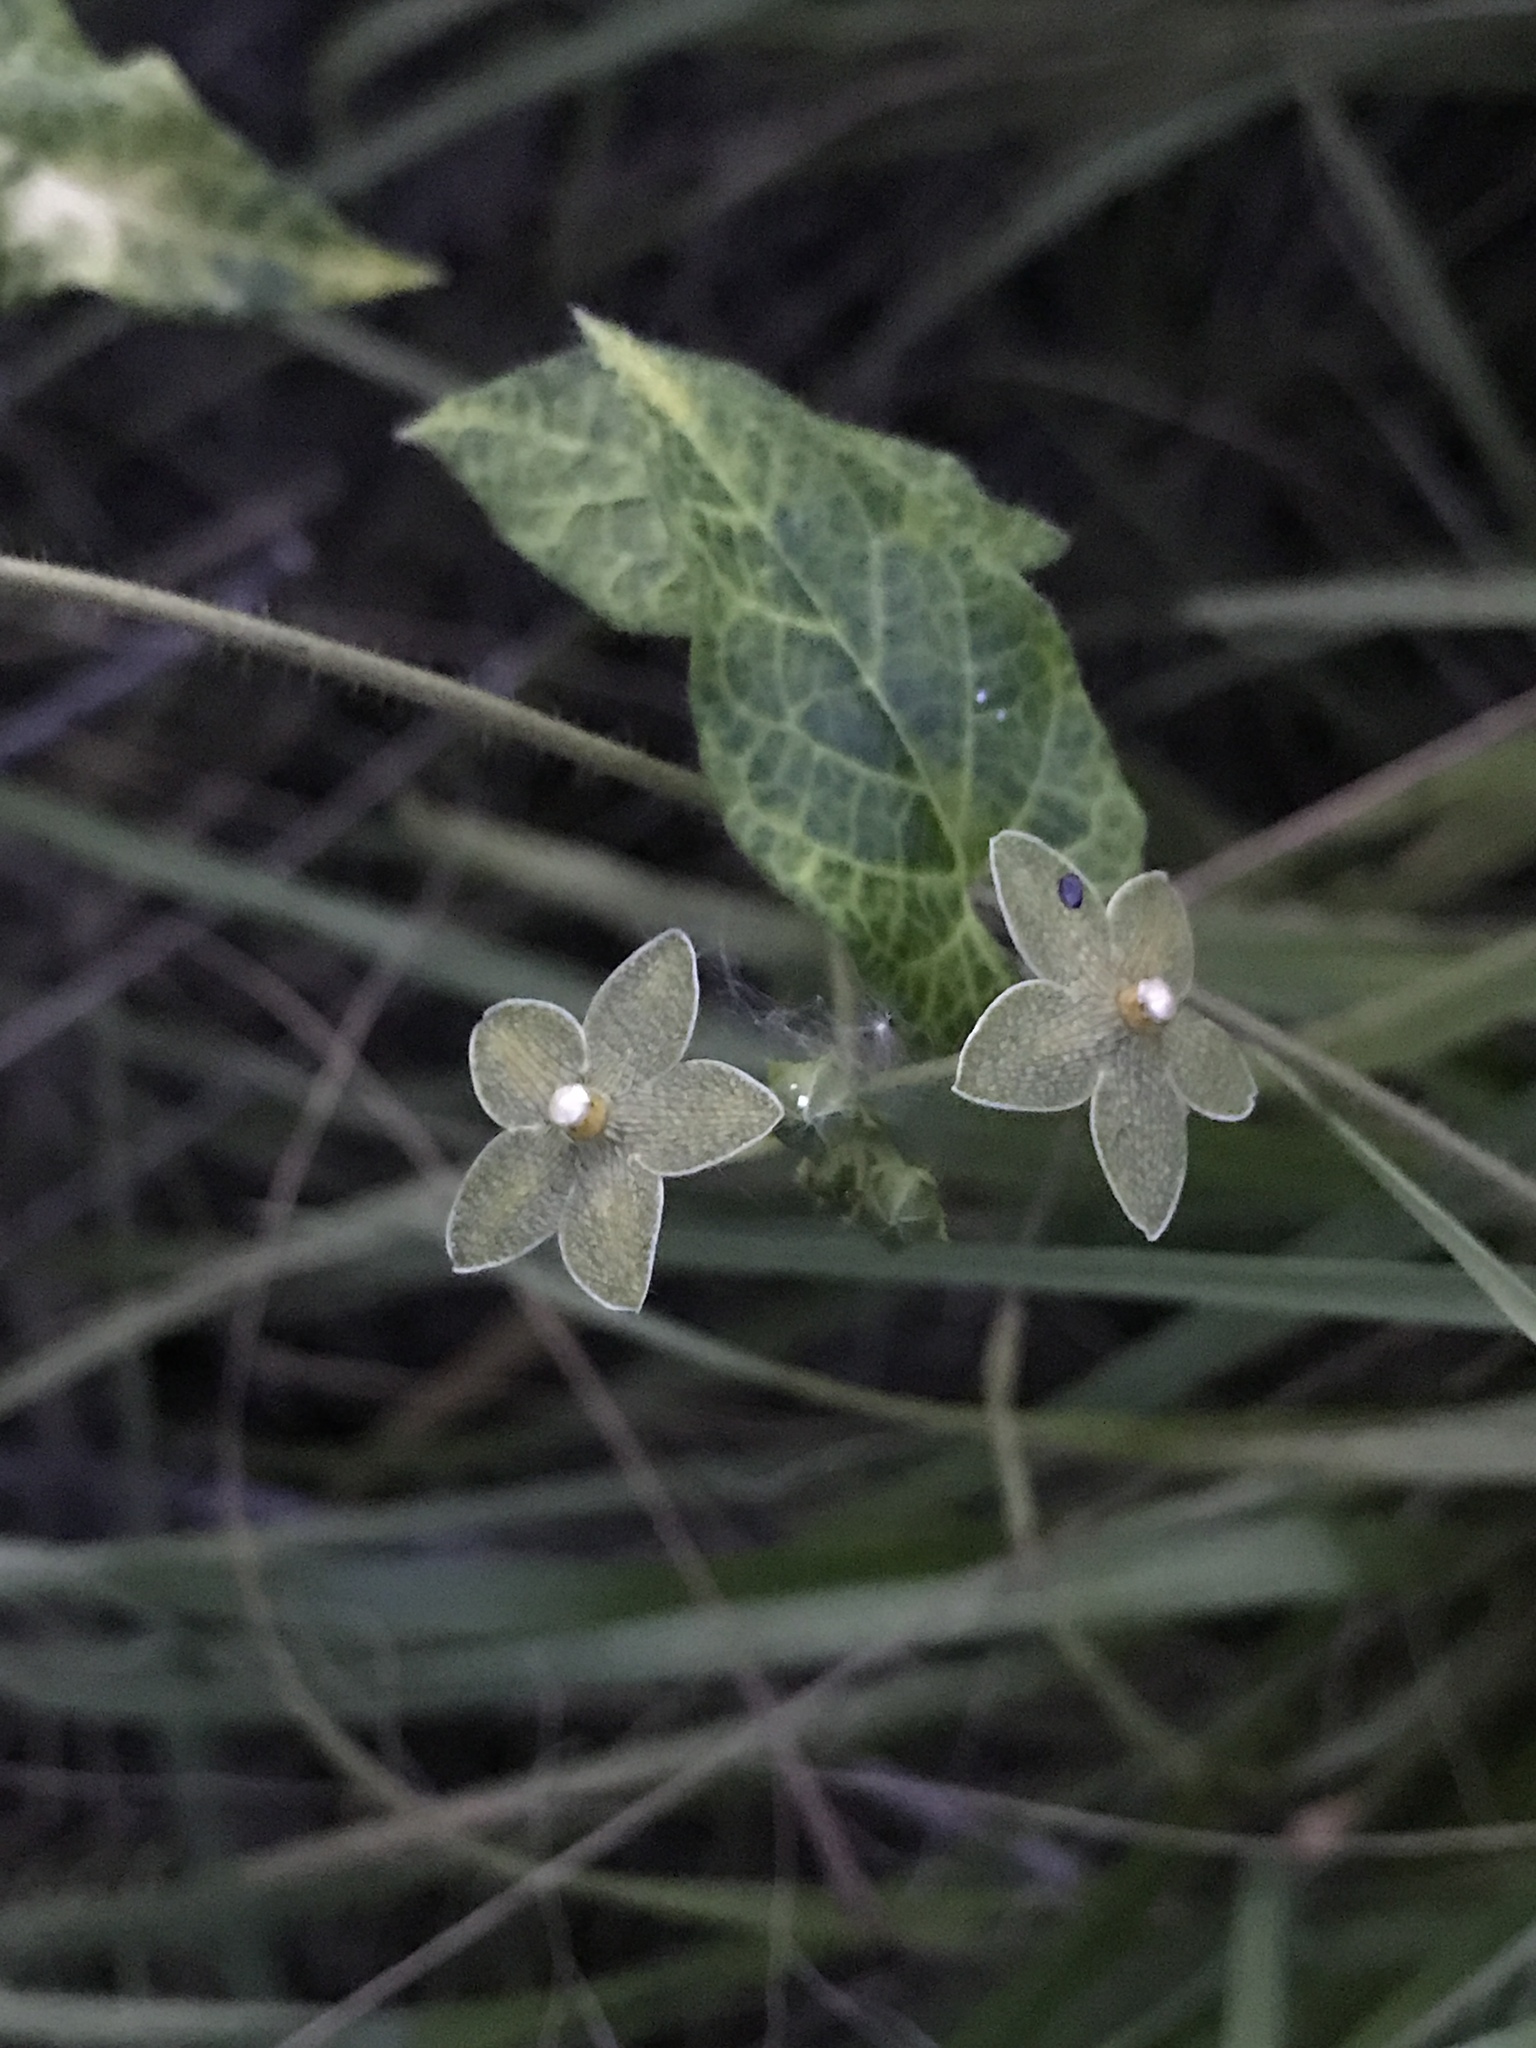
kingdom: Plantae
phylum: Tracheophyta
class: Magnoliopsida
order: Gentianales
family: Apocynaceae
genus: Dictyanthus
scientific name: Dictyanthus reticulatus
